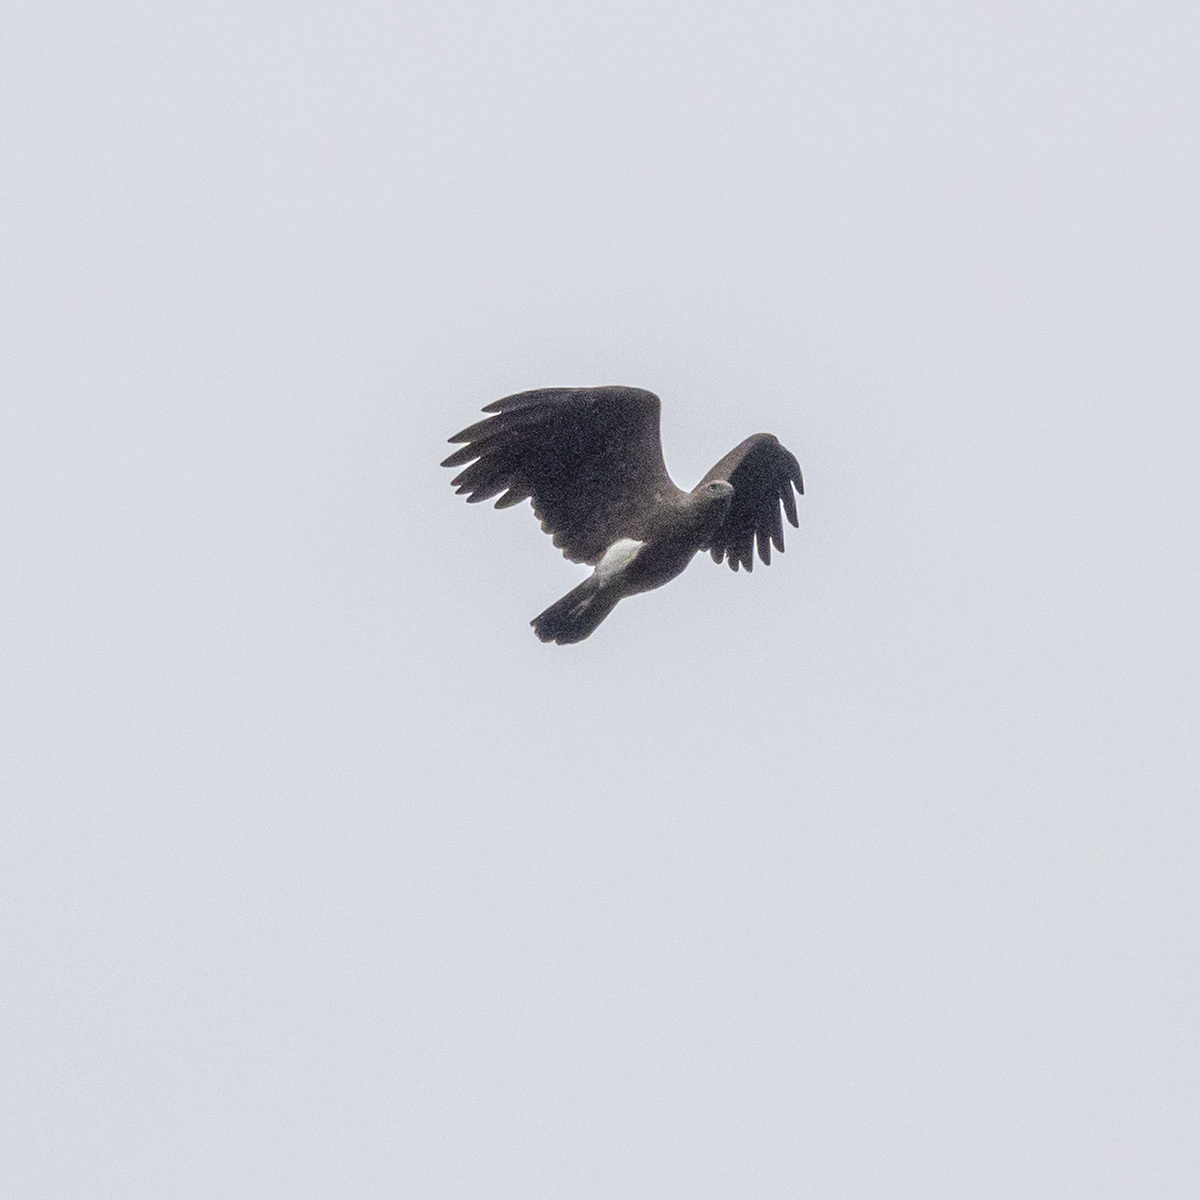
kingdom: Animalia
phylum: Chordata
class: Aves
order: Accipitriformes
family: Accipitridae
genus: Icthyophaga
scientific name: Icthyophaga humilis
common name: Lesser fish-eagle
